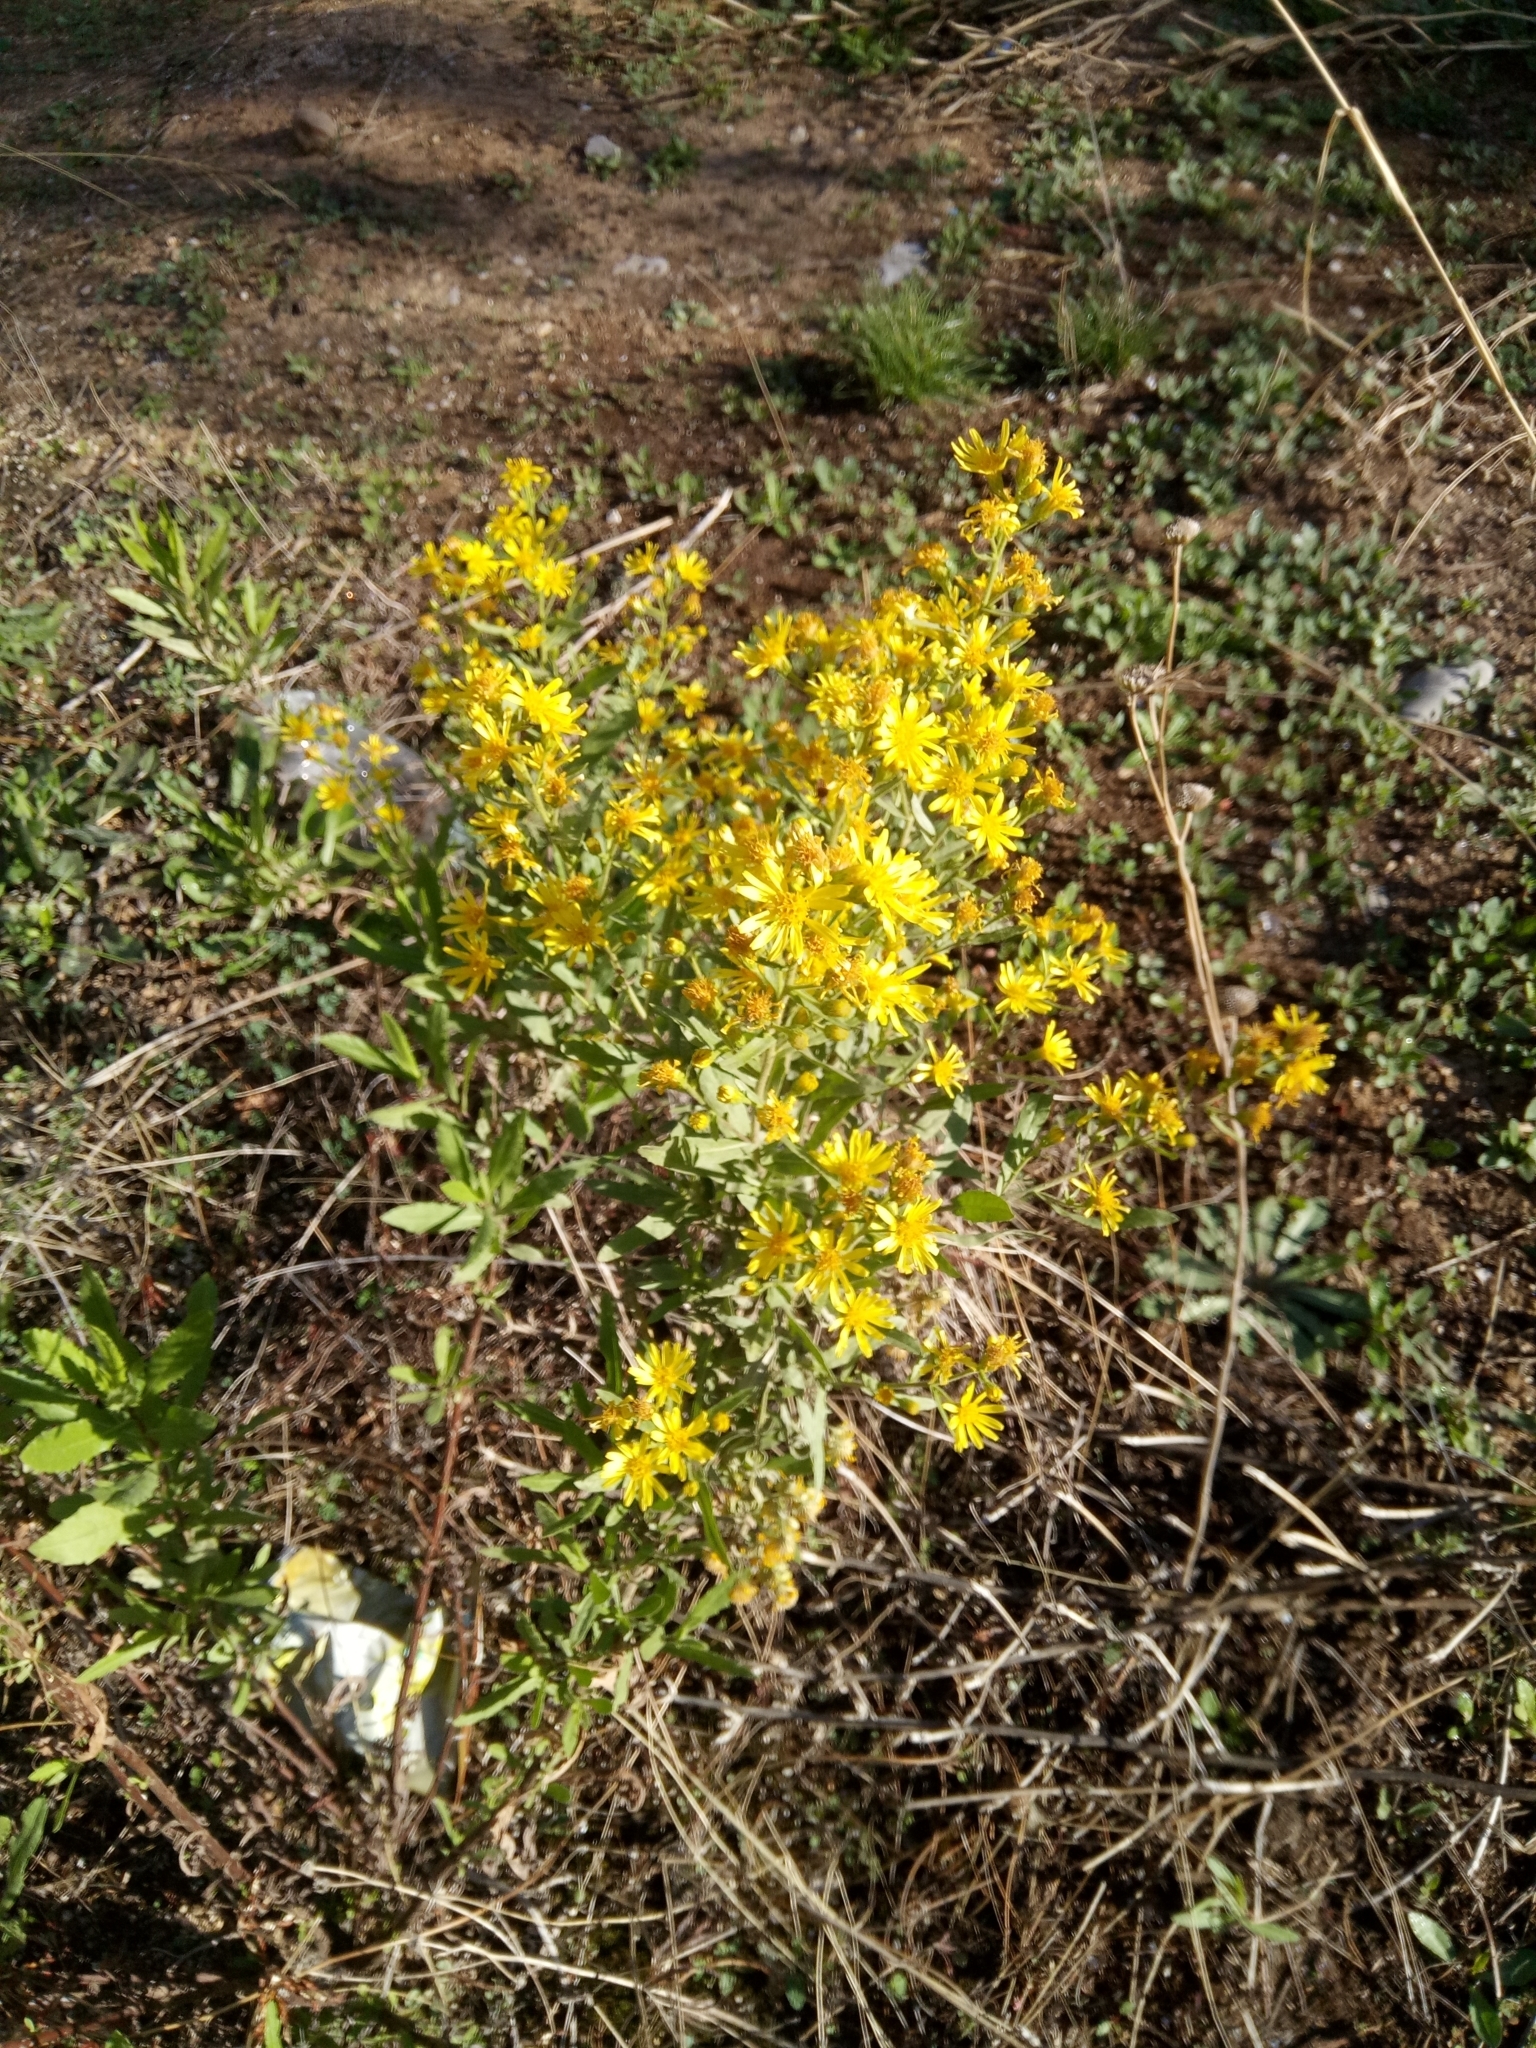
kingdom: Plantae
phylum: Tracheophyta
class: Magnoliopsida
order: Asterales
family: Asteraceae
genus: Dittrichia
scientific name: Dittrichia viscosa
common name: Woody fleabane
